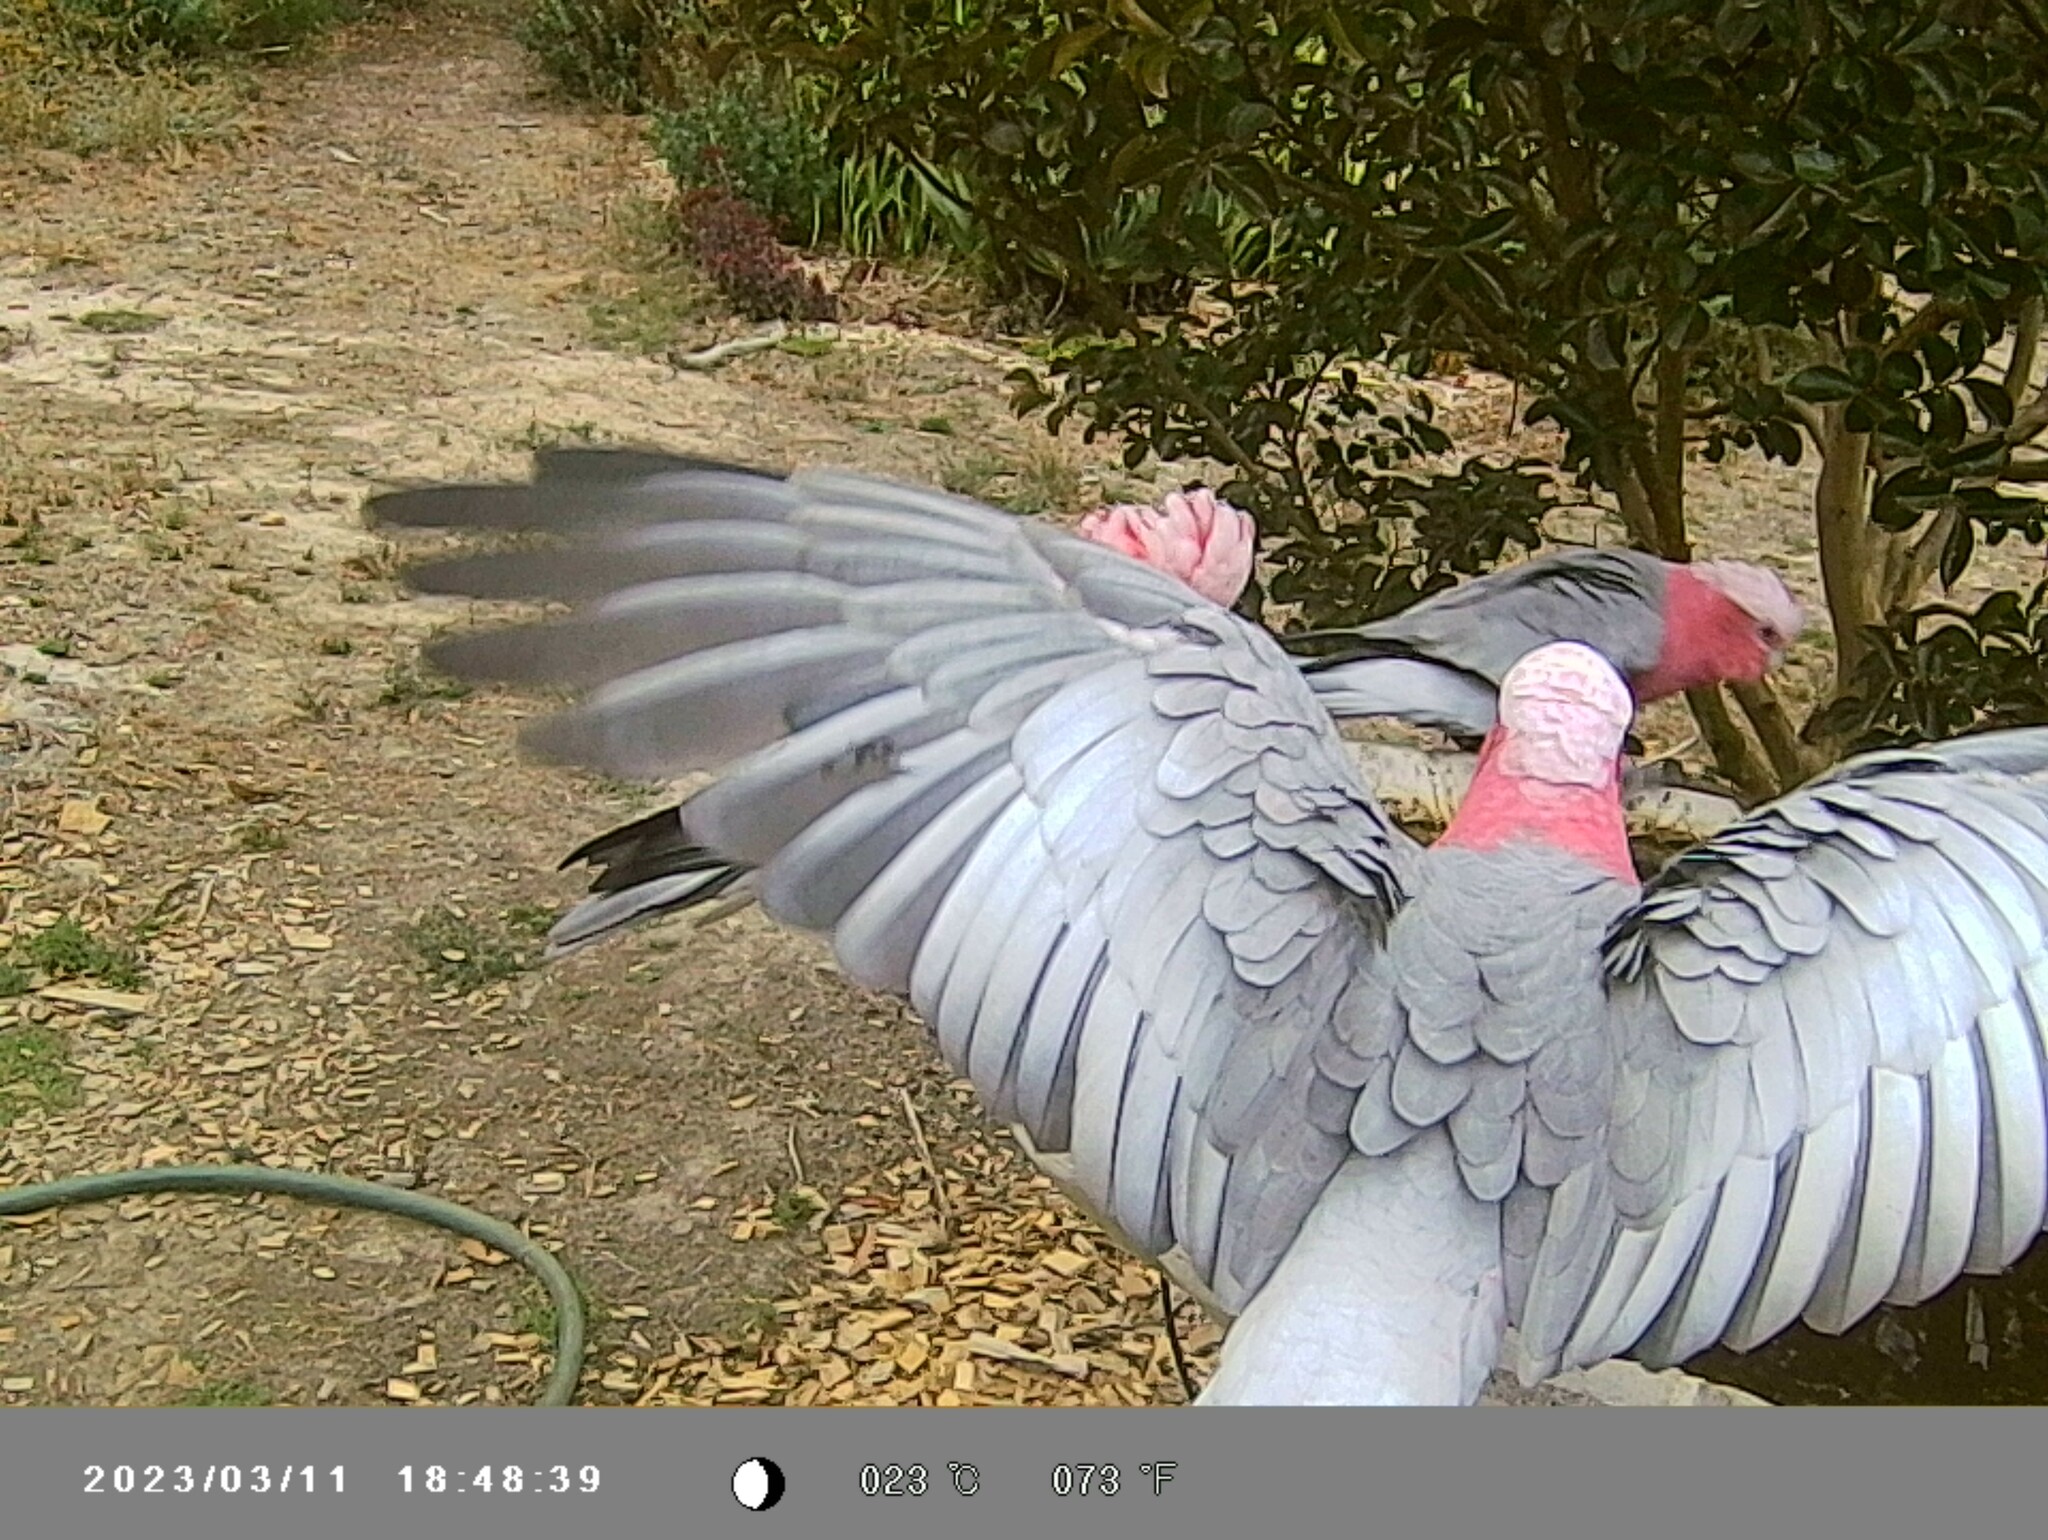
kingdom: Animalia
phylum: Chordata
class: Aves
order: Psittaciformes
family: Psittacidae
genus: Eolophus
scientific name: Eolophus roseicapilla
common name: Galah
